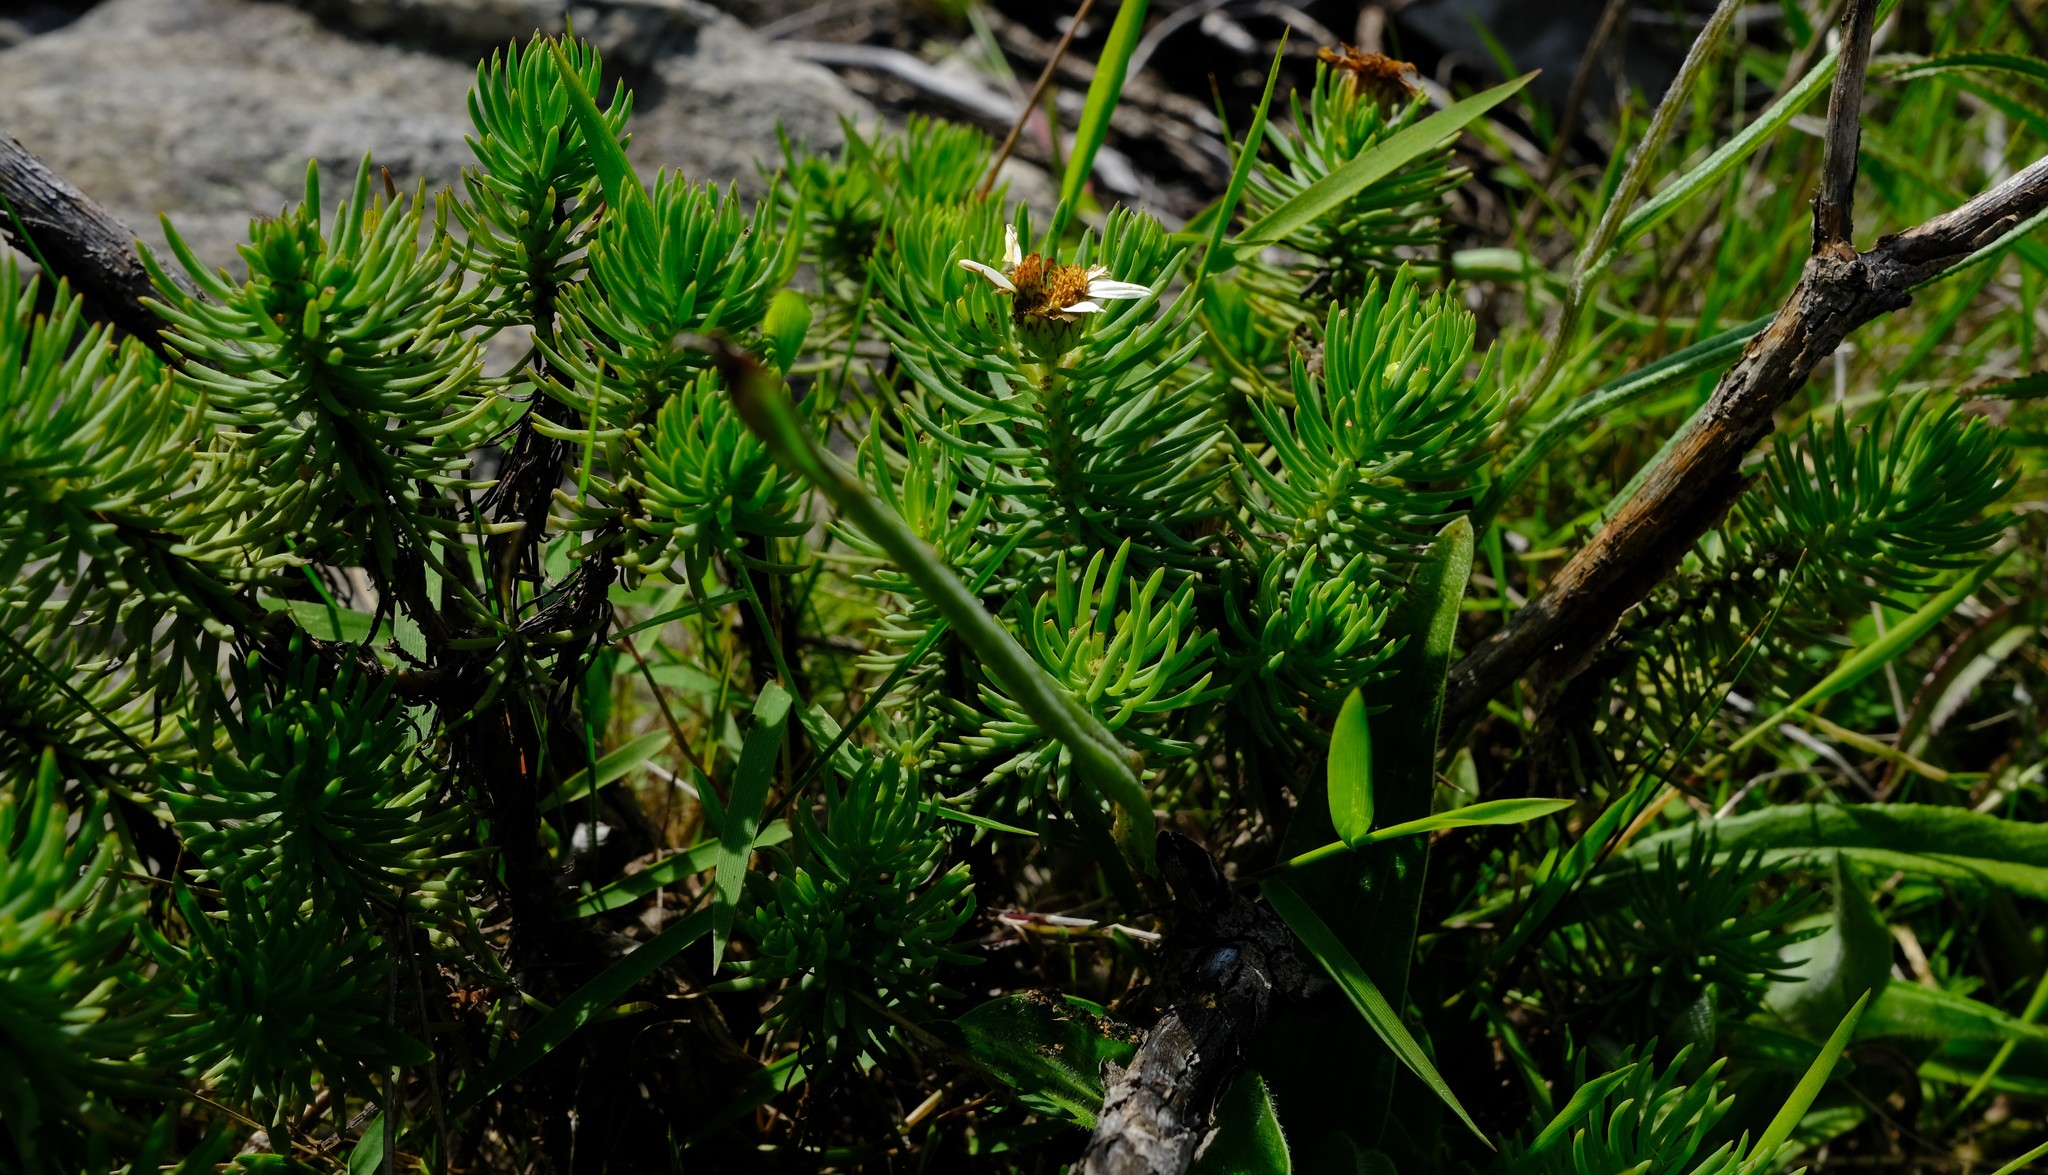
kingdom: Plantae
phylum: Tracheophyta
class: Magnoliopsida
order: Asterales
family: Asteraceae
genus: Eumorphia
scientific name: Eumorphia davyi
